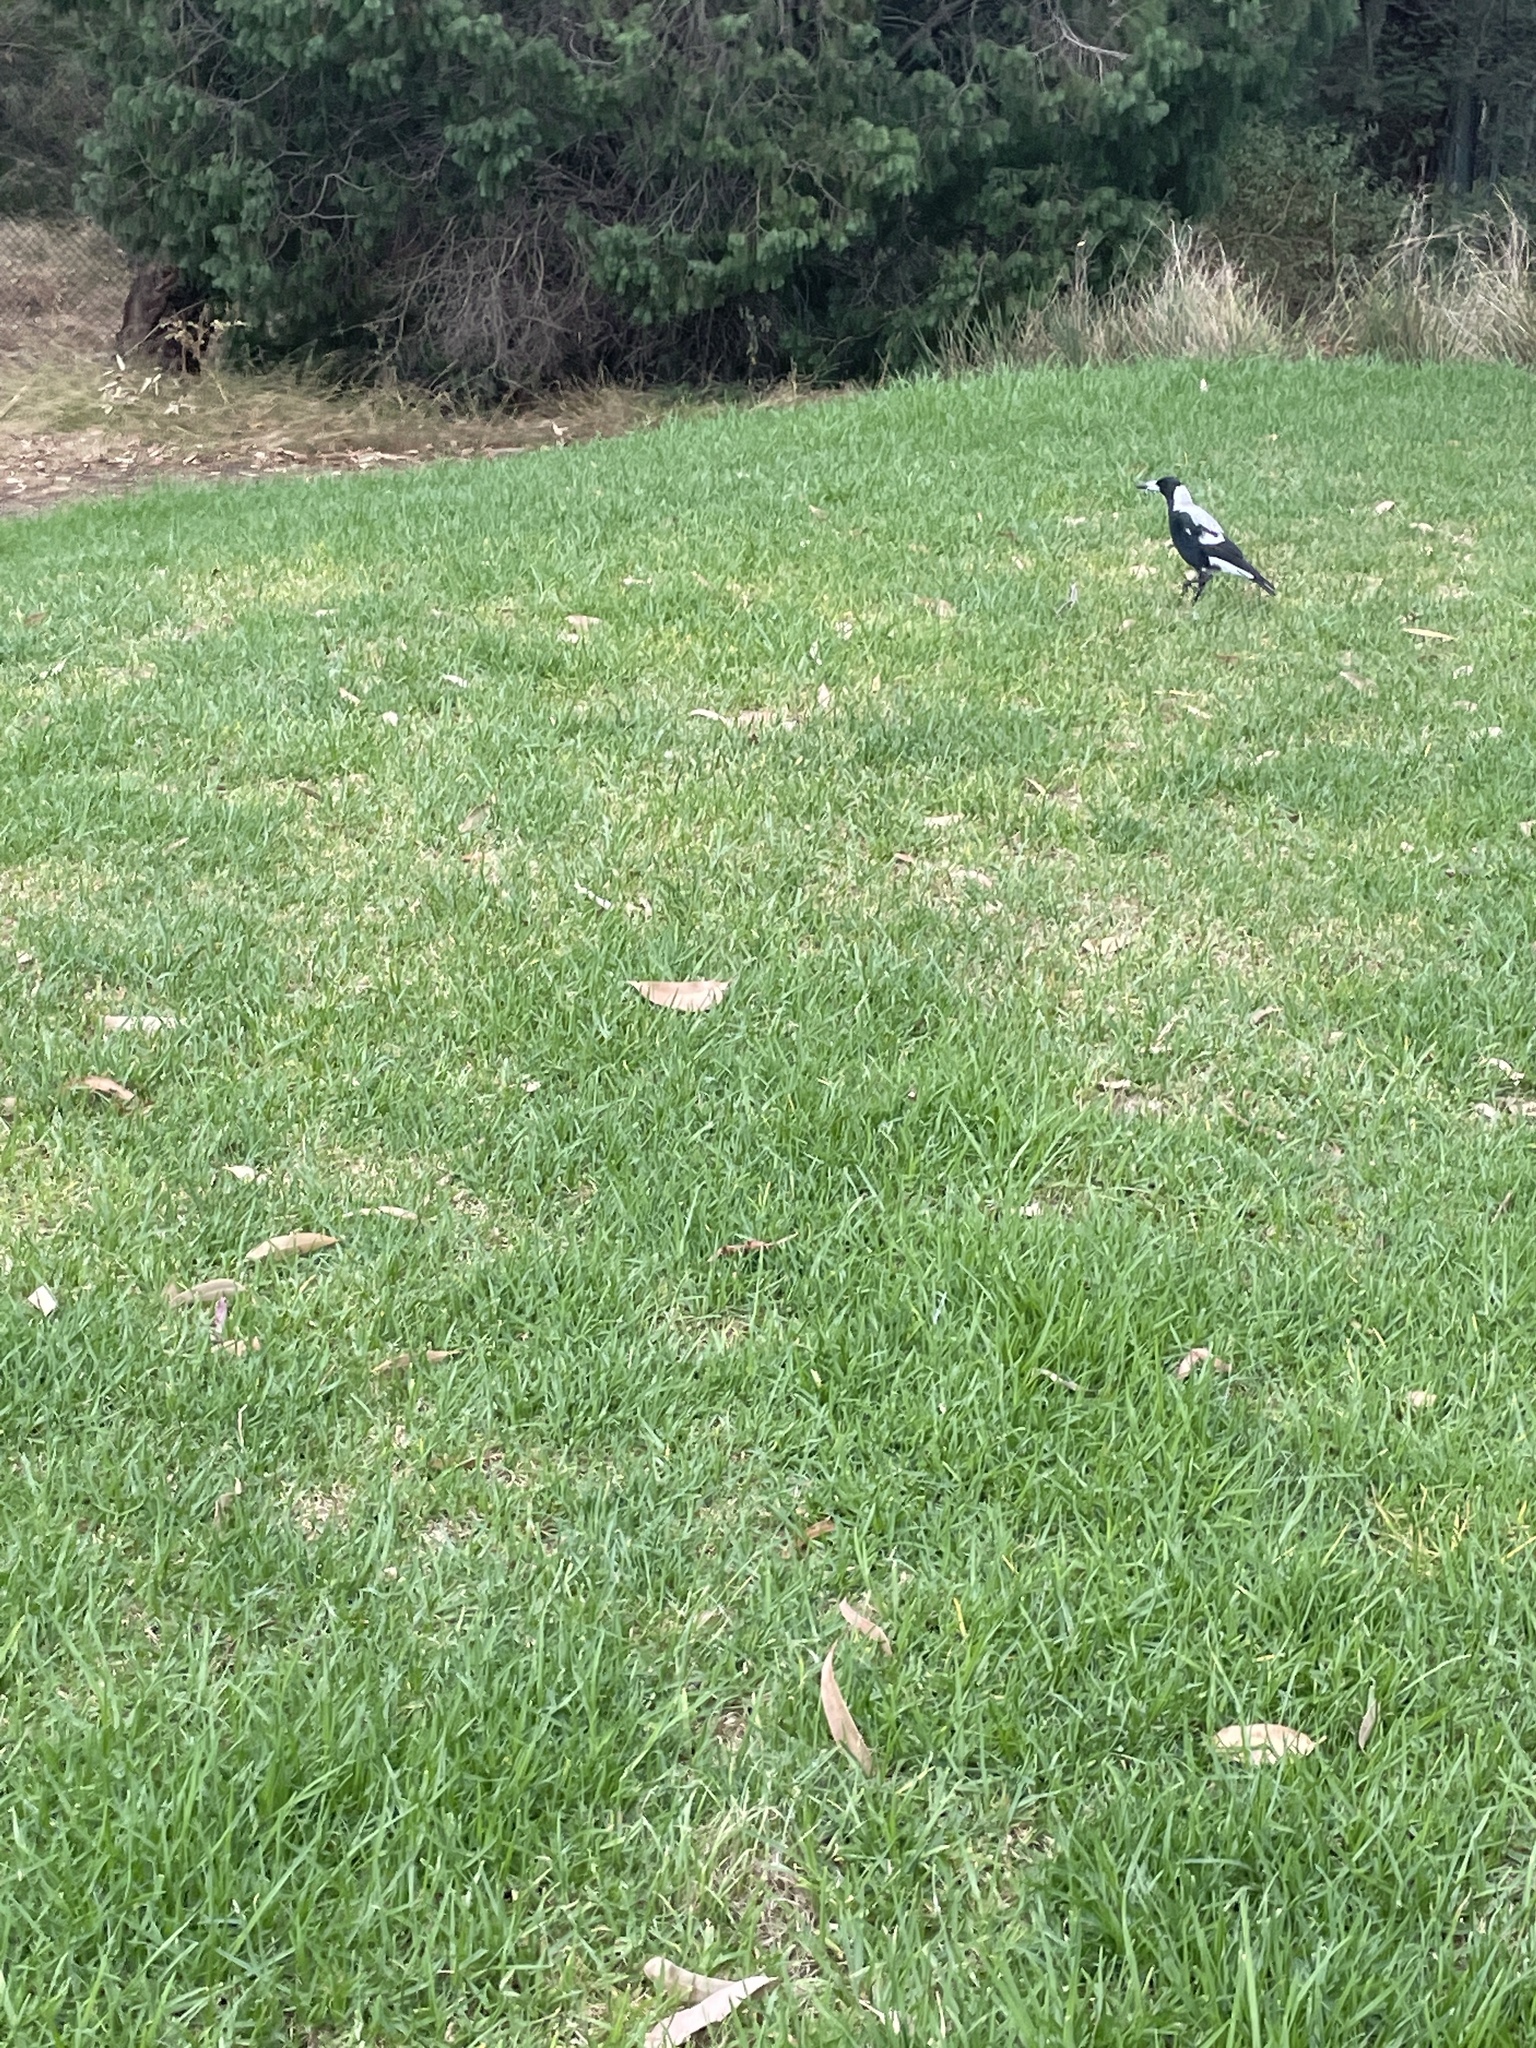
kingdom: Animalia
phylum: Chordata
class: Aves
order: Passeriformes
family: Cracticidae
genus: Gymnorhina
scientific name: Gymnorhina tibicen
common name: Australian magpie
